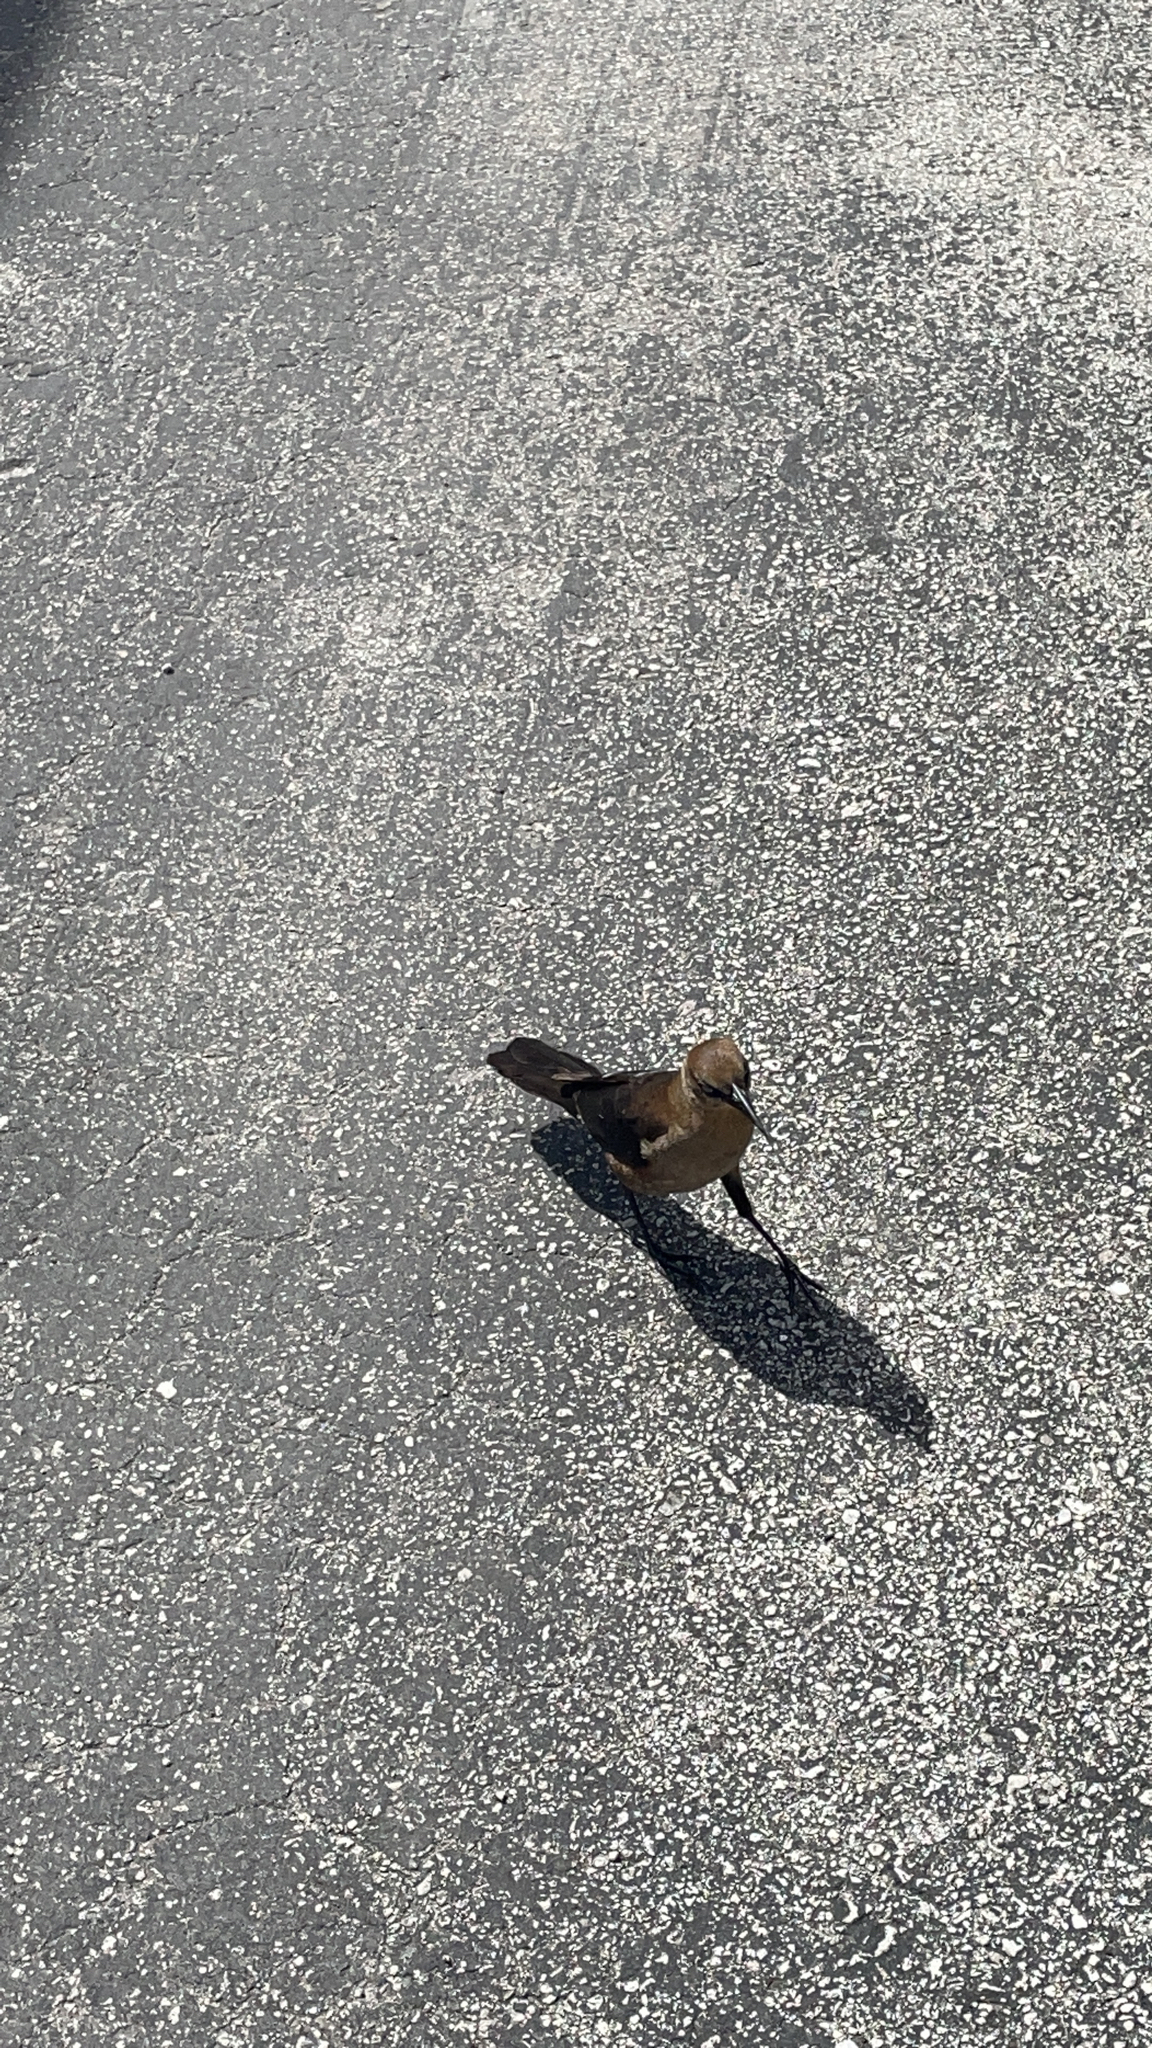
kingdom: Animalia
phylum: Chordata
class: Aves
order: Passeriformes
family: Icteridae
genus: Quiscalus
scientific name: Quiscalus major
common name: Boat-tailed grackle
